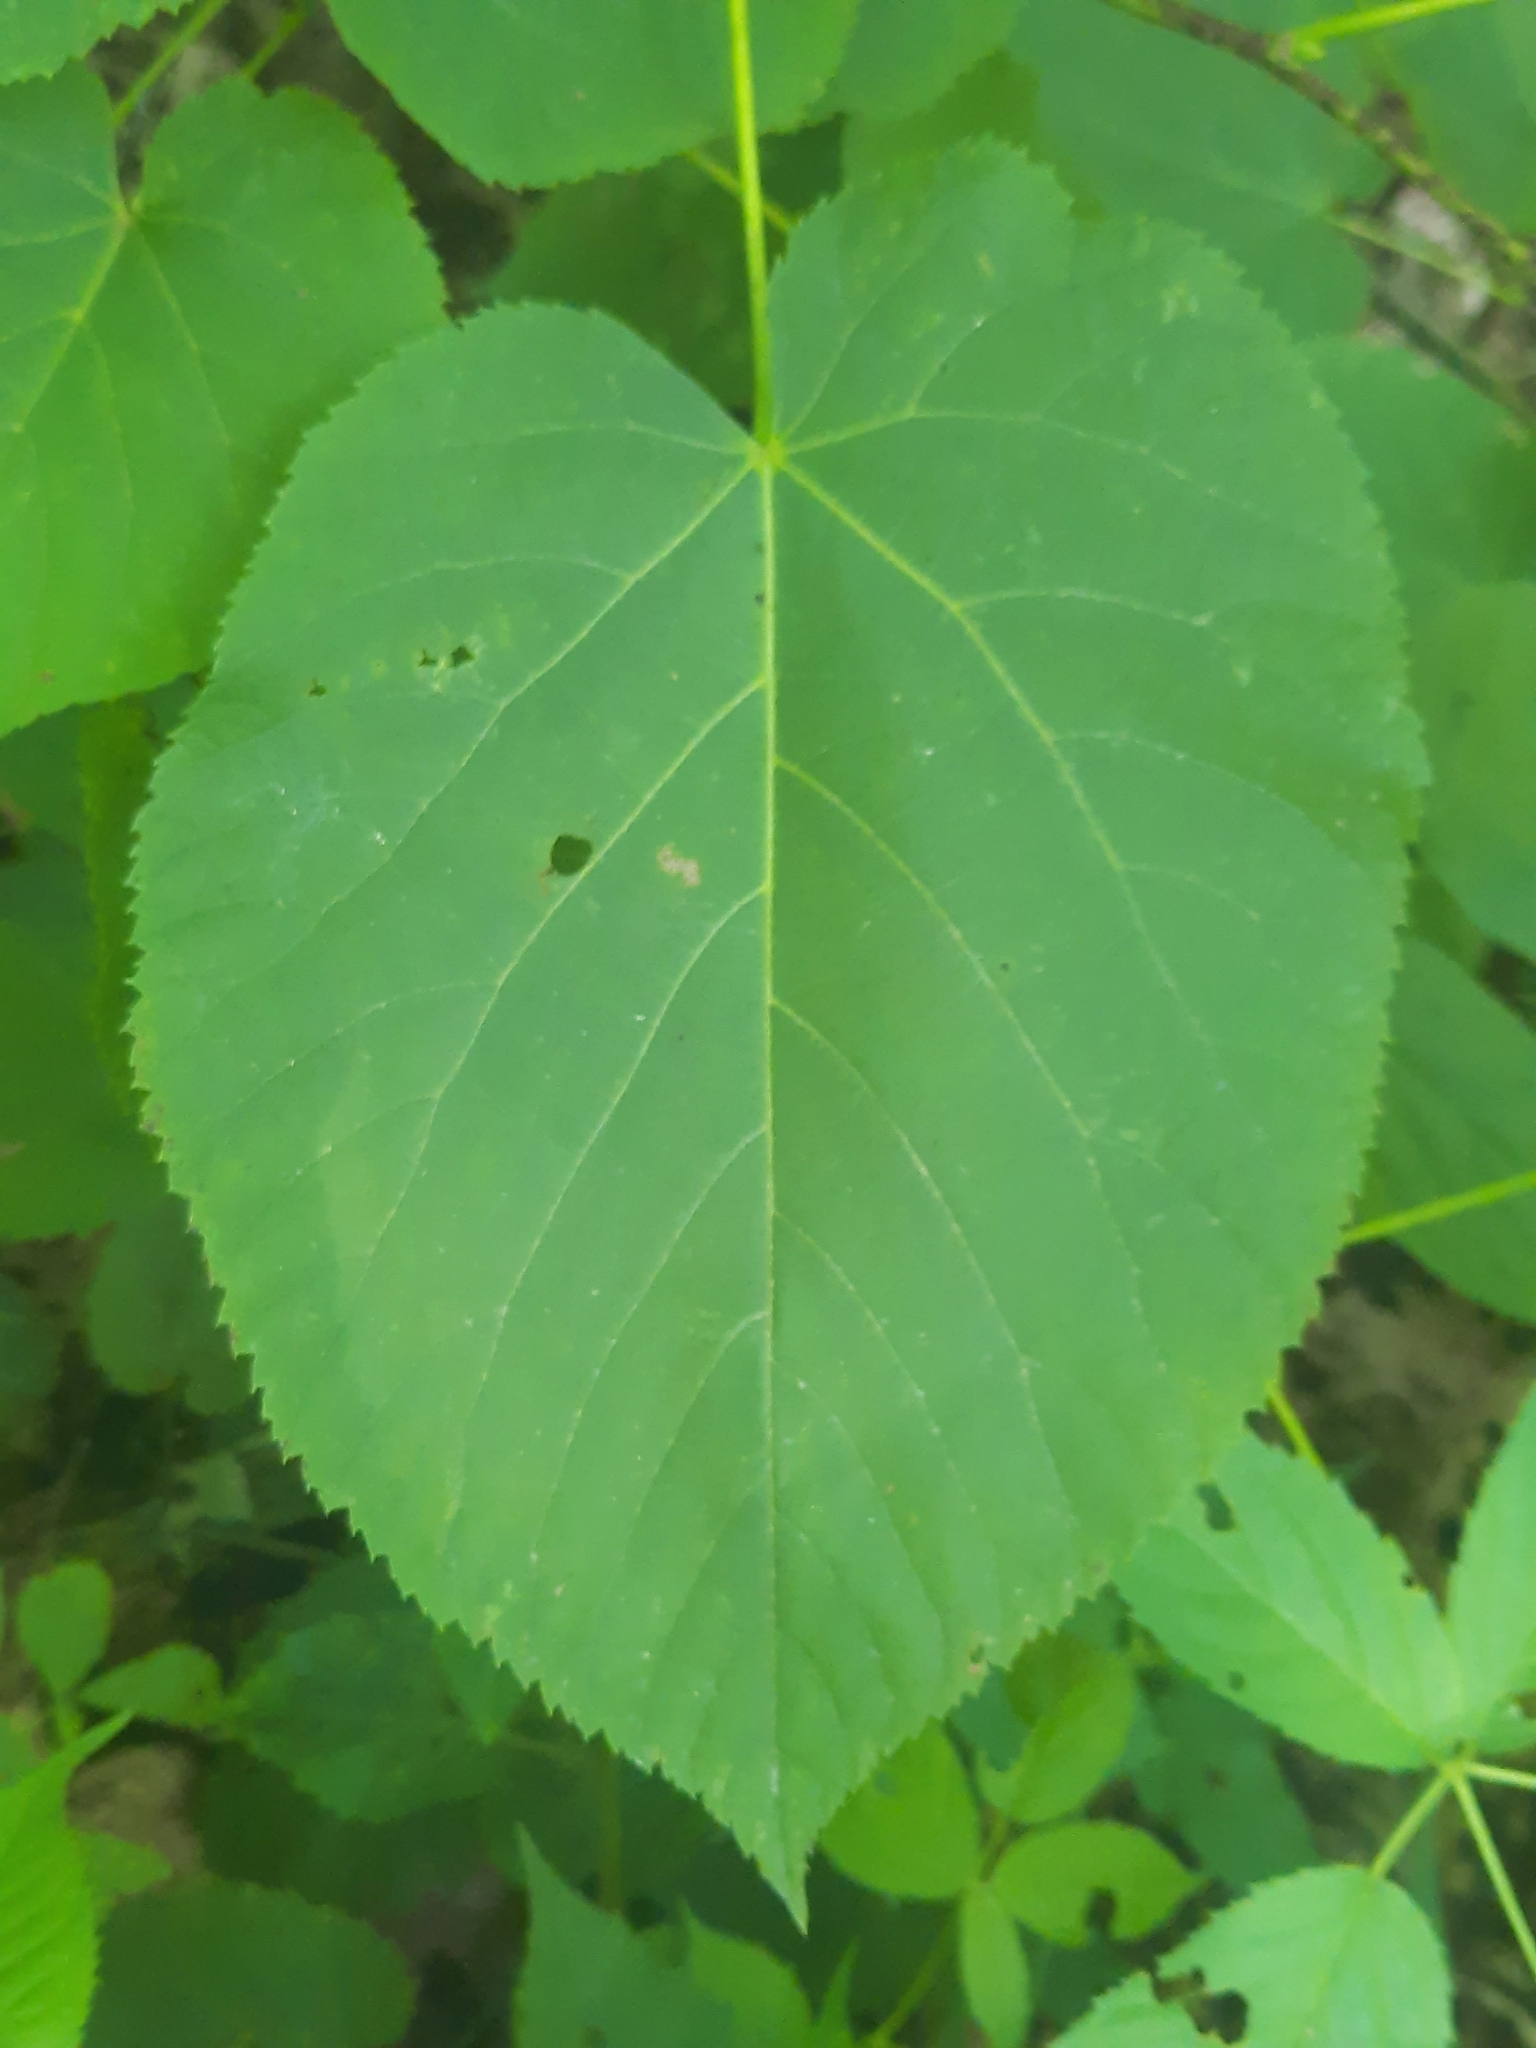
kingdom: Plantae
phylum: Tracheophyta
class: Magnoliopsida
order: Malvales
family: Malvaceae
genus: Tilia
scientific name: Tilia americana
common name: Basswood
